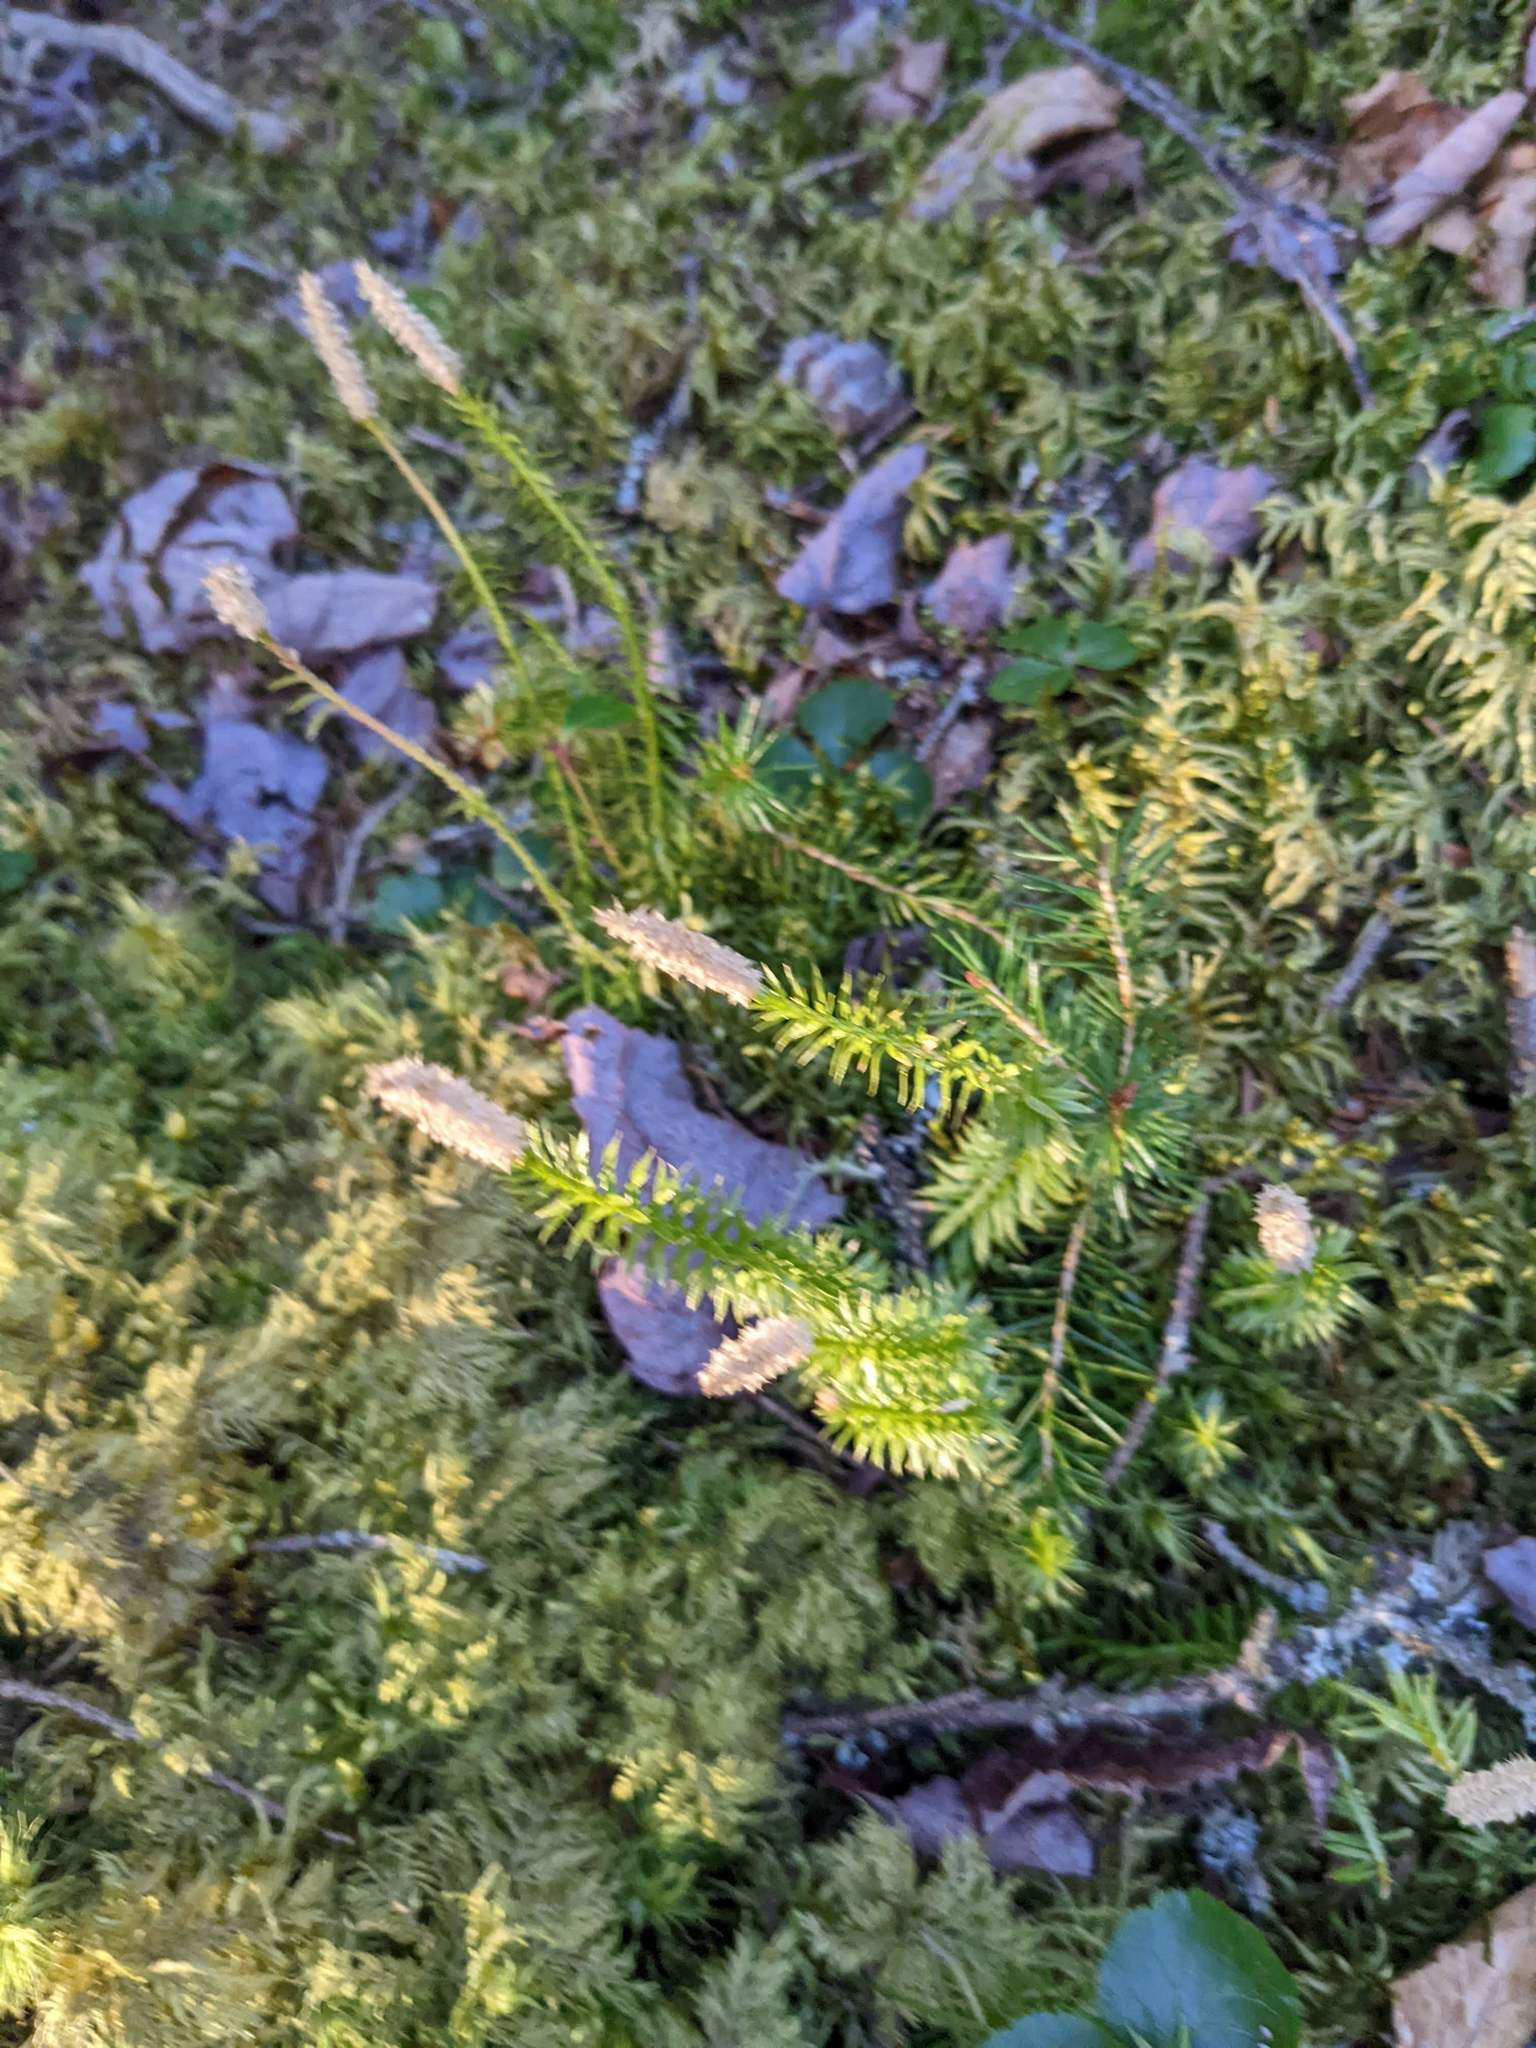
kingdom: Plantae
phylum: Tracheophyta
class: Lycopodiopsida
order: Lycopodiales
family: Lycopodiaceae
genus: Spinulum
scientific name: Spinulum annotinum
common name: Interrupted club-moss
